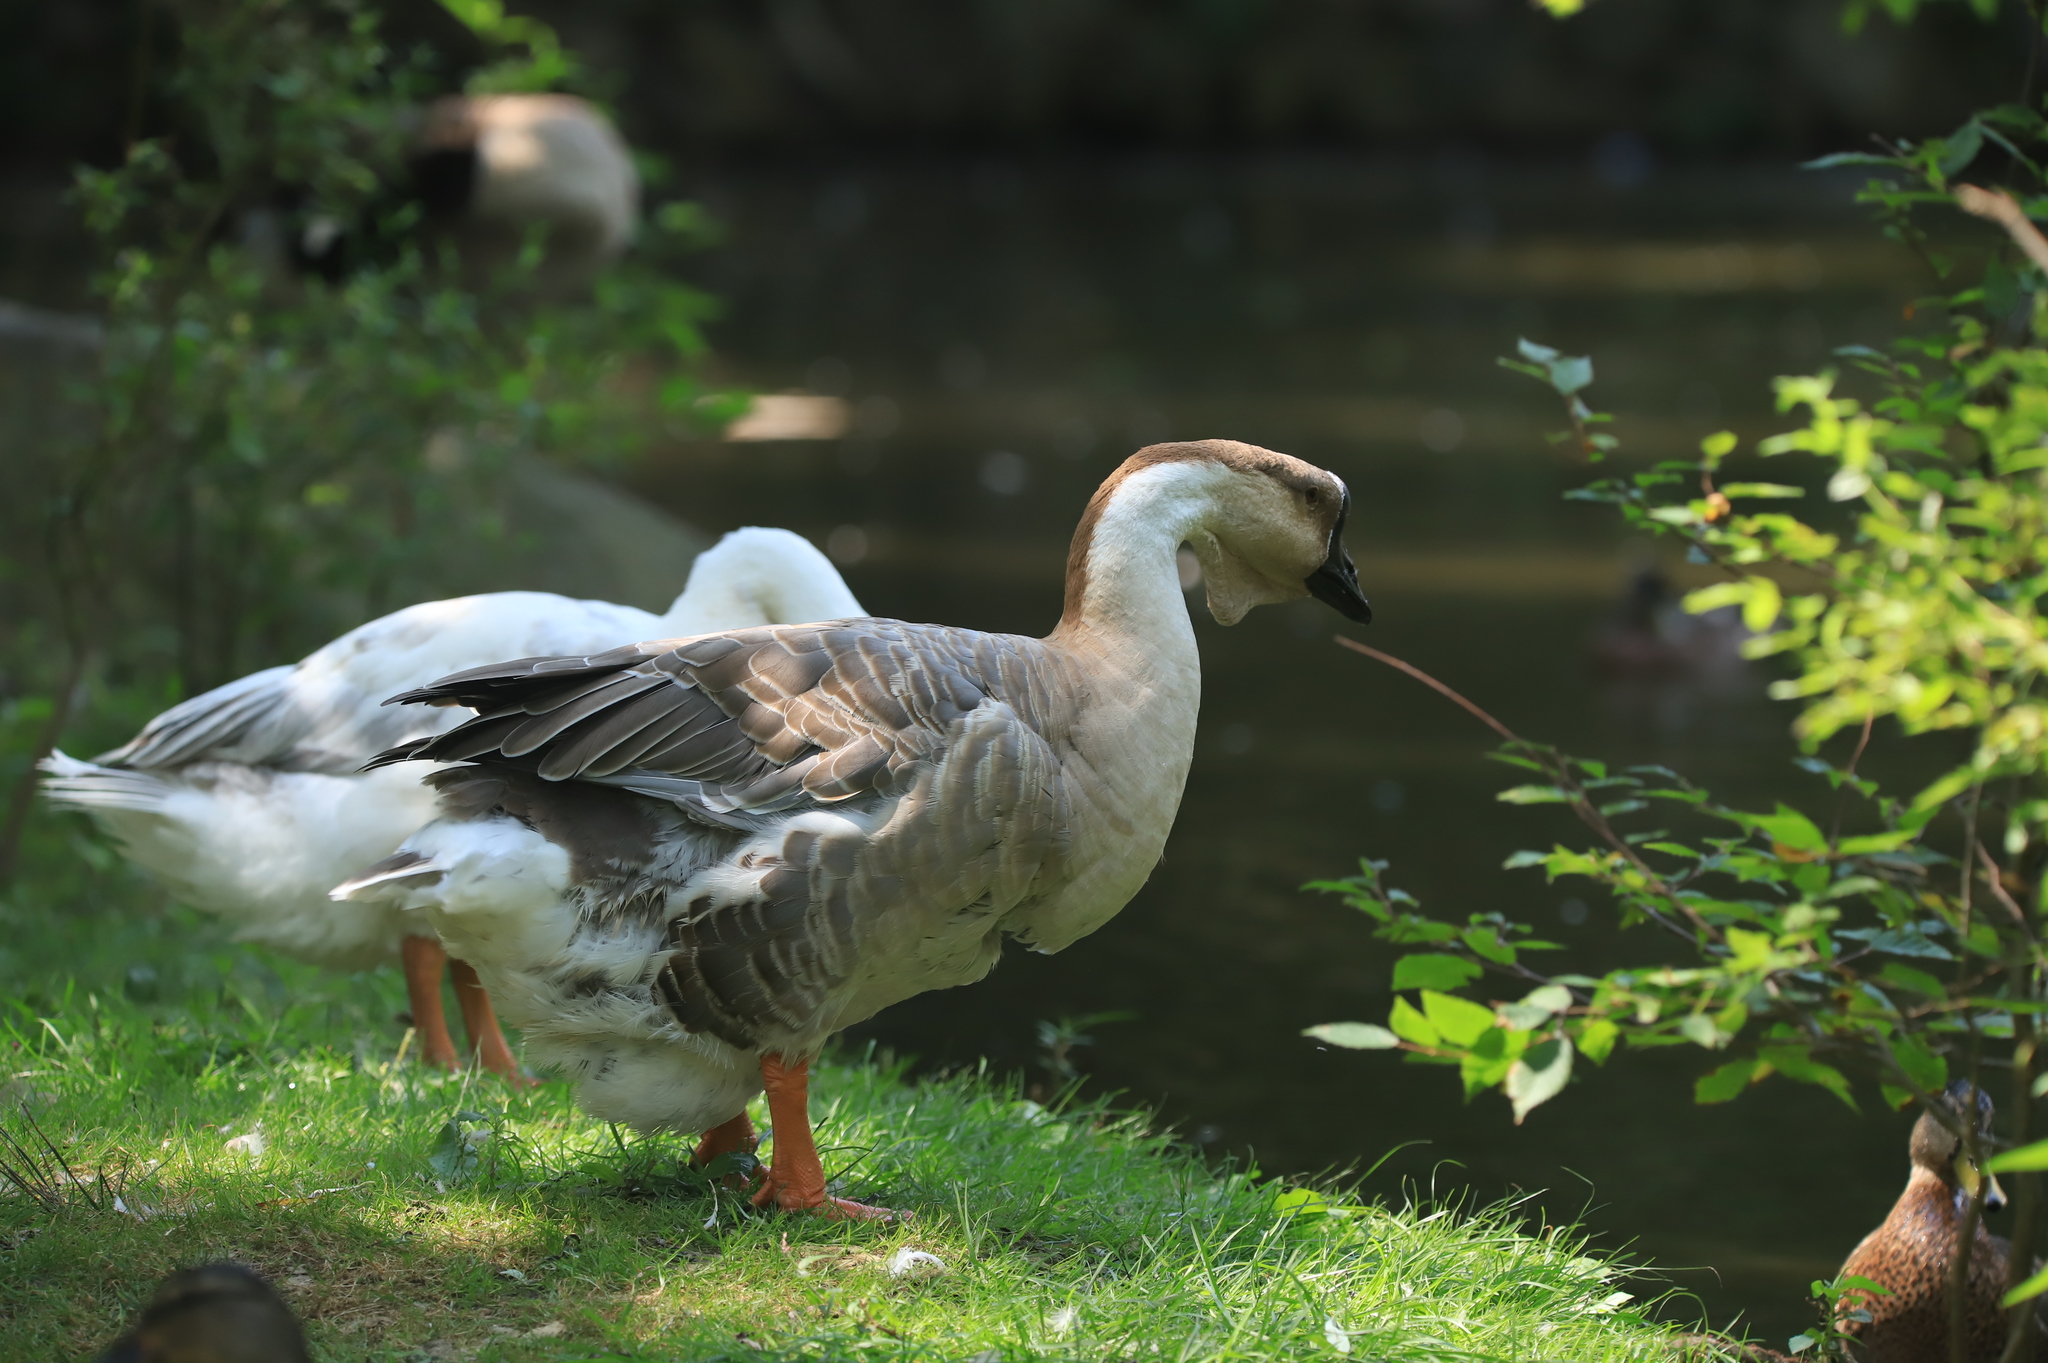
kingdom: Animalia
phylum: Chordata
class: Aves
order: Anseriformes
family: Anatidae
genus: Anser
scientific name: Anser cygnoides
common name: Swan goose
